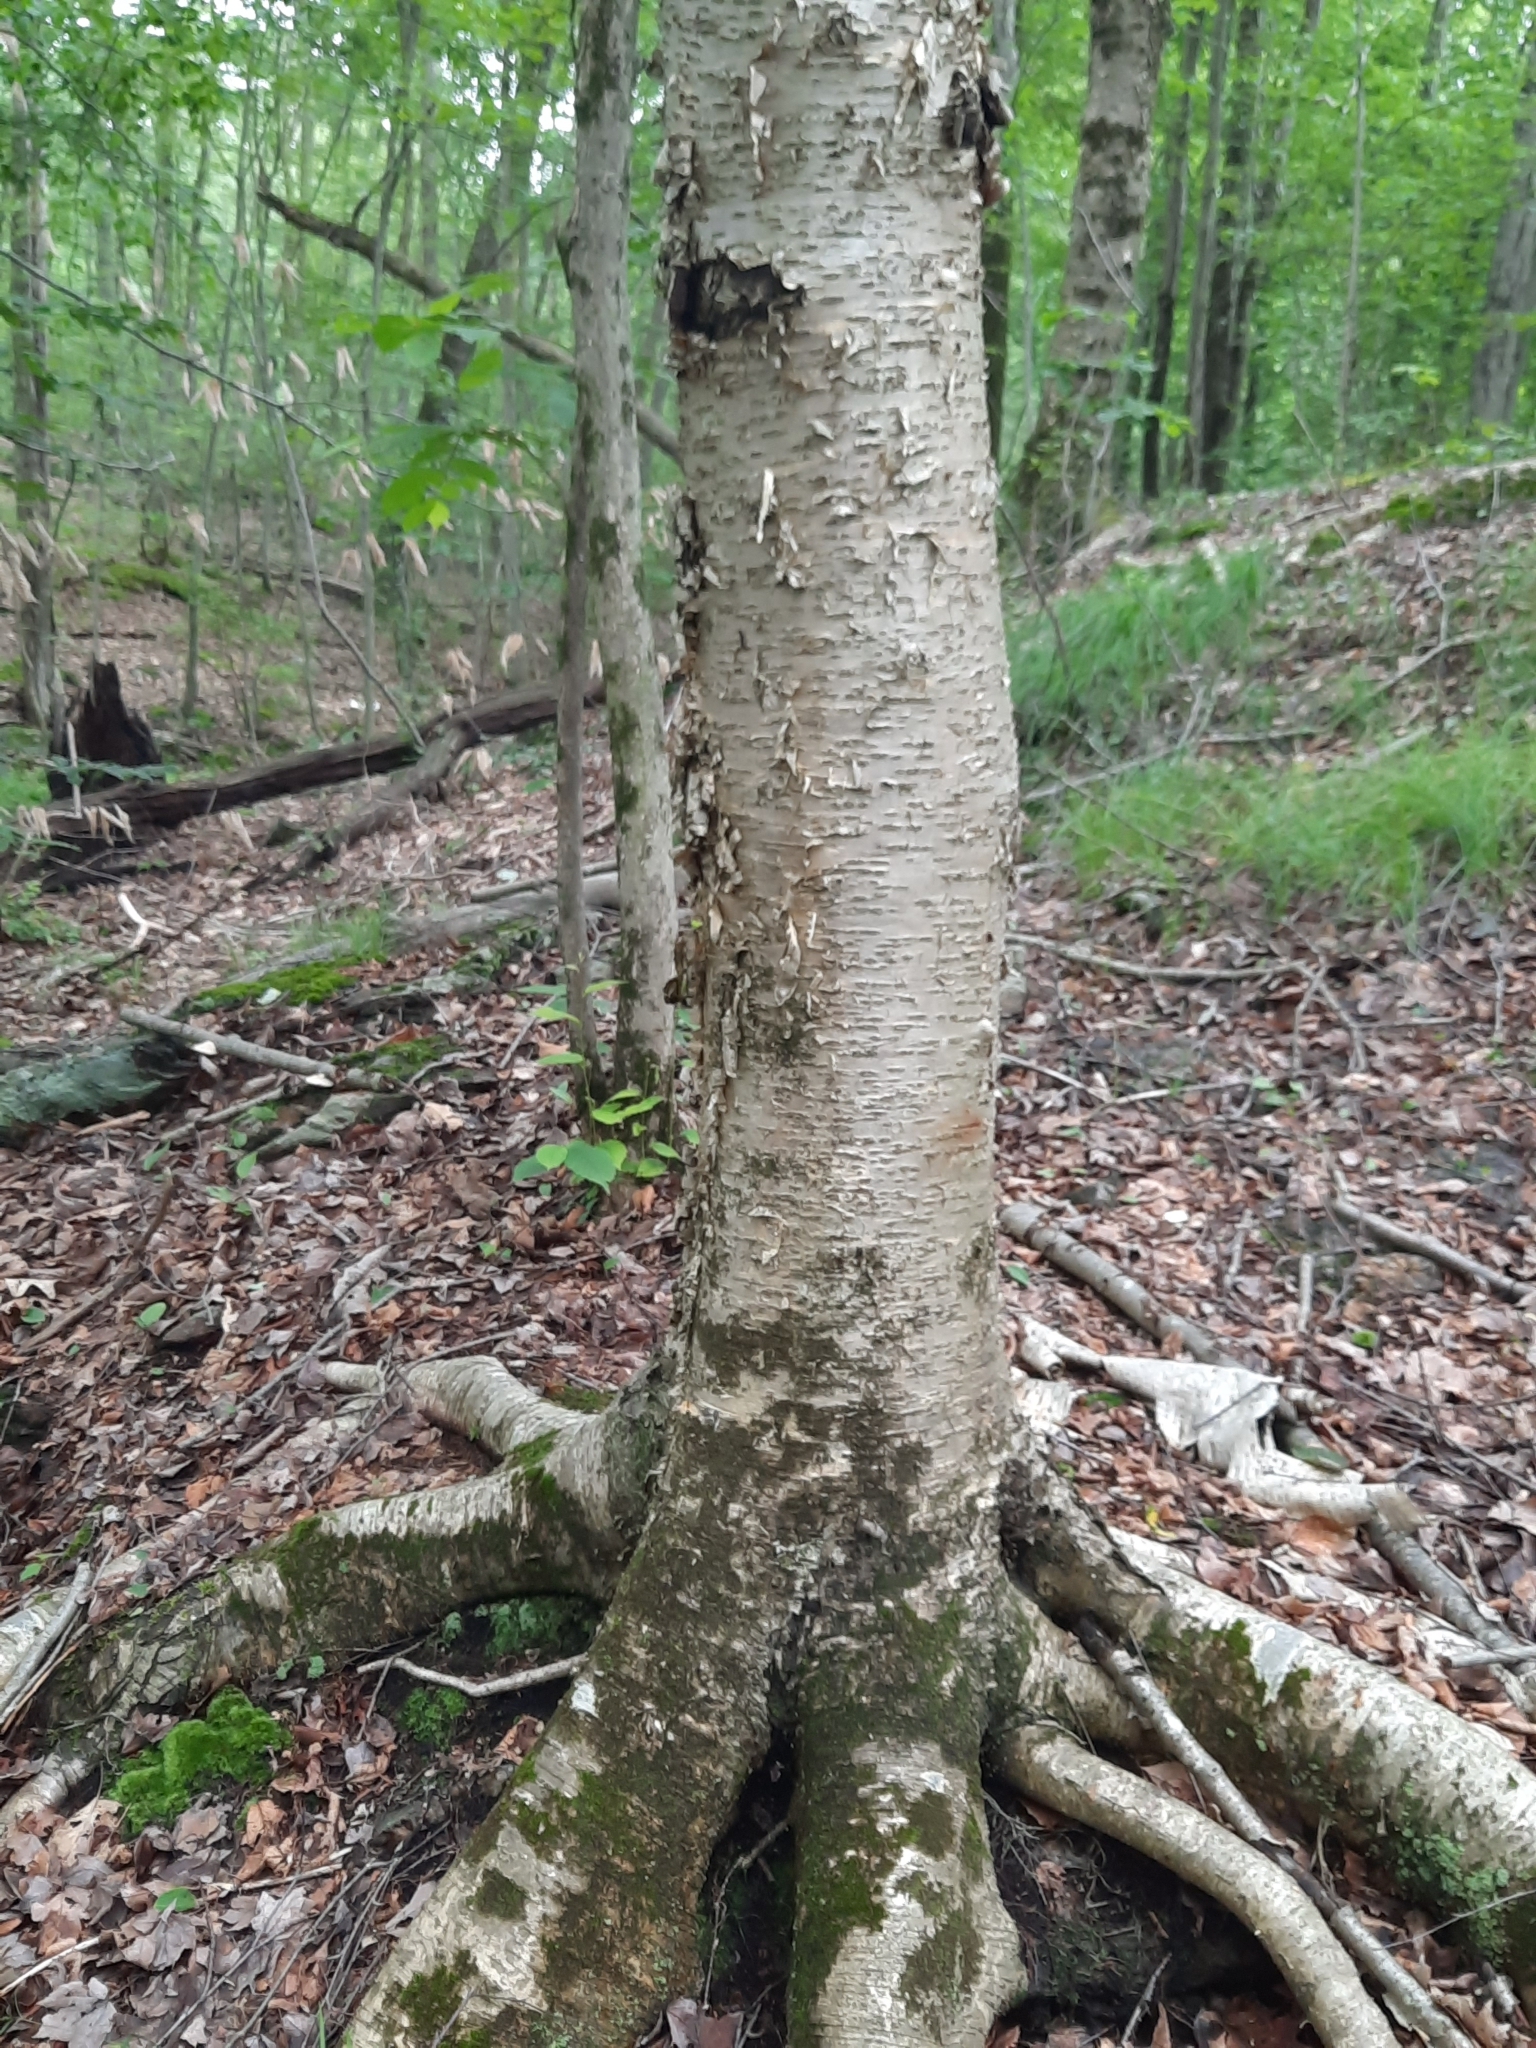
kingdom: Plantae
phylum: Tracheophyta
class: Magnoliopsida
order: Fagales
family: Betulaceae
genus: Betula
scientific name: Betula alleghaniensis
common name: Yellow birch
